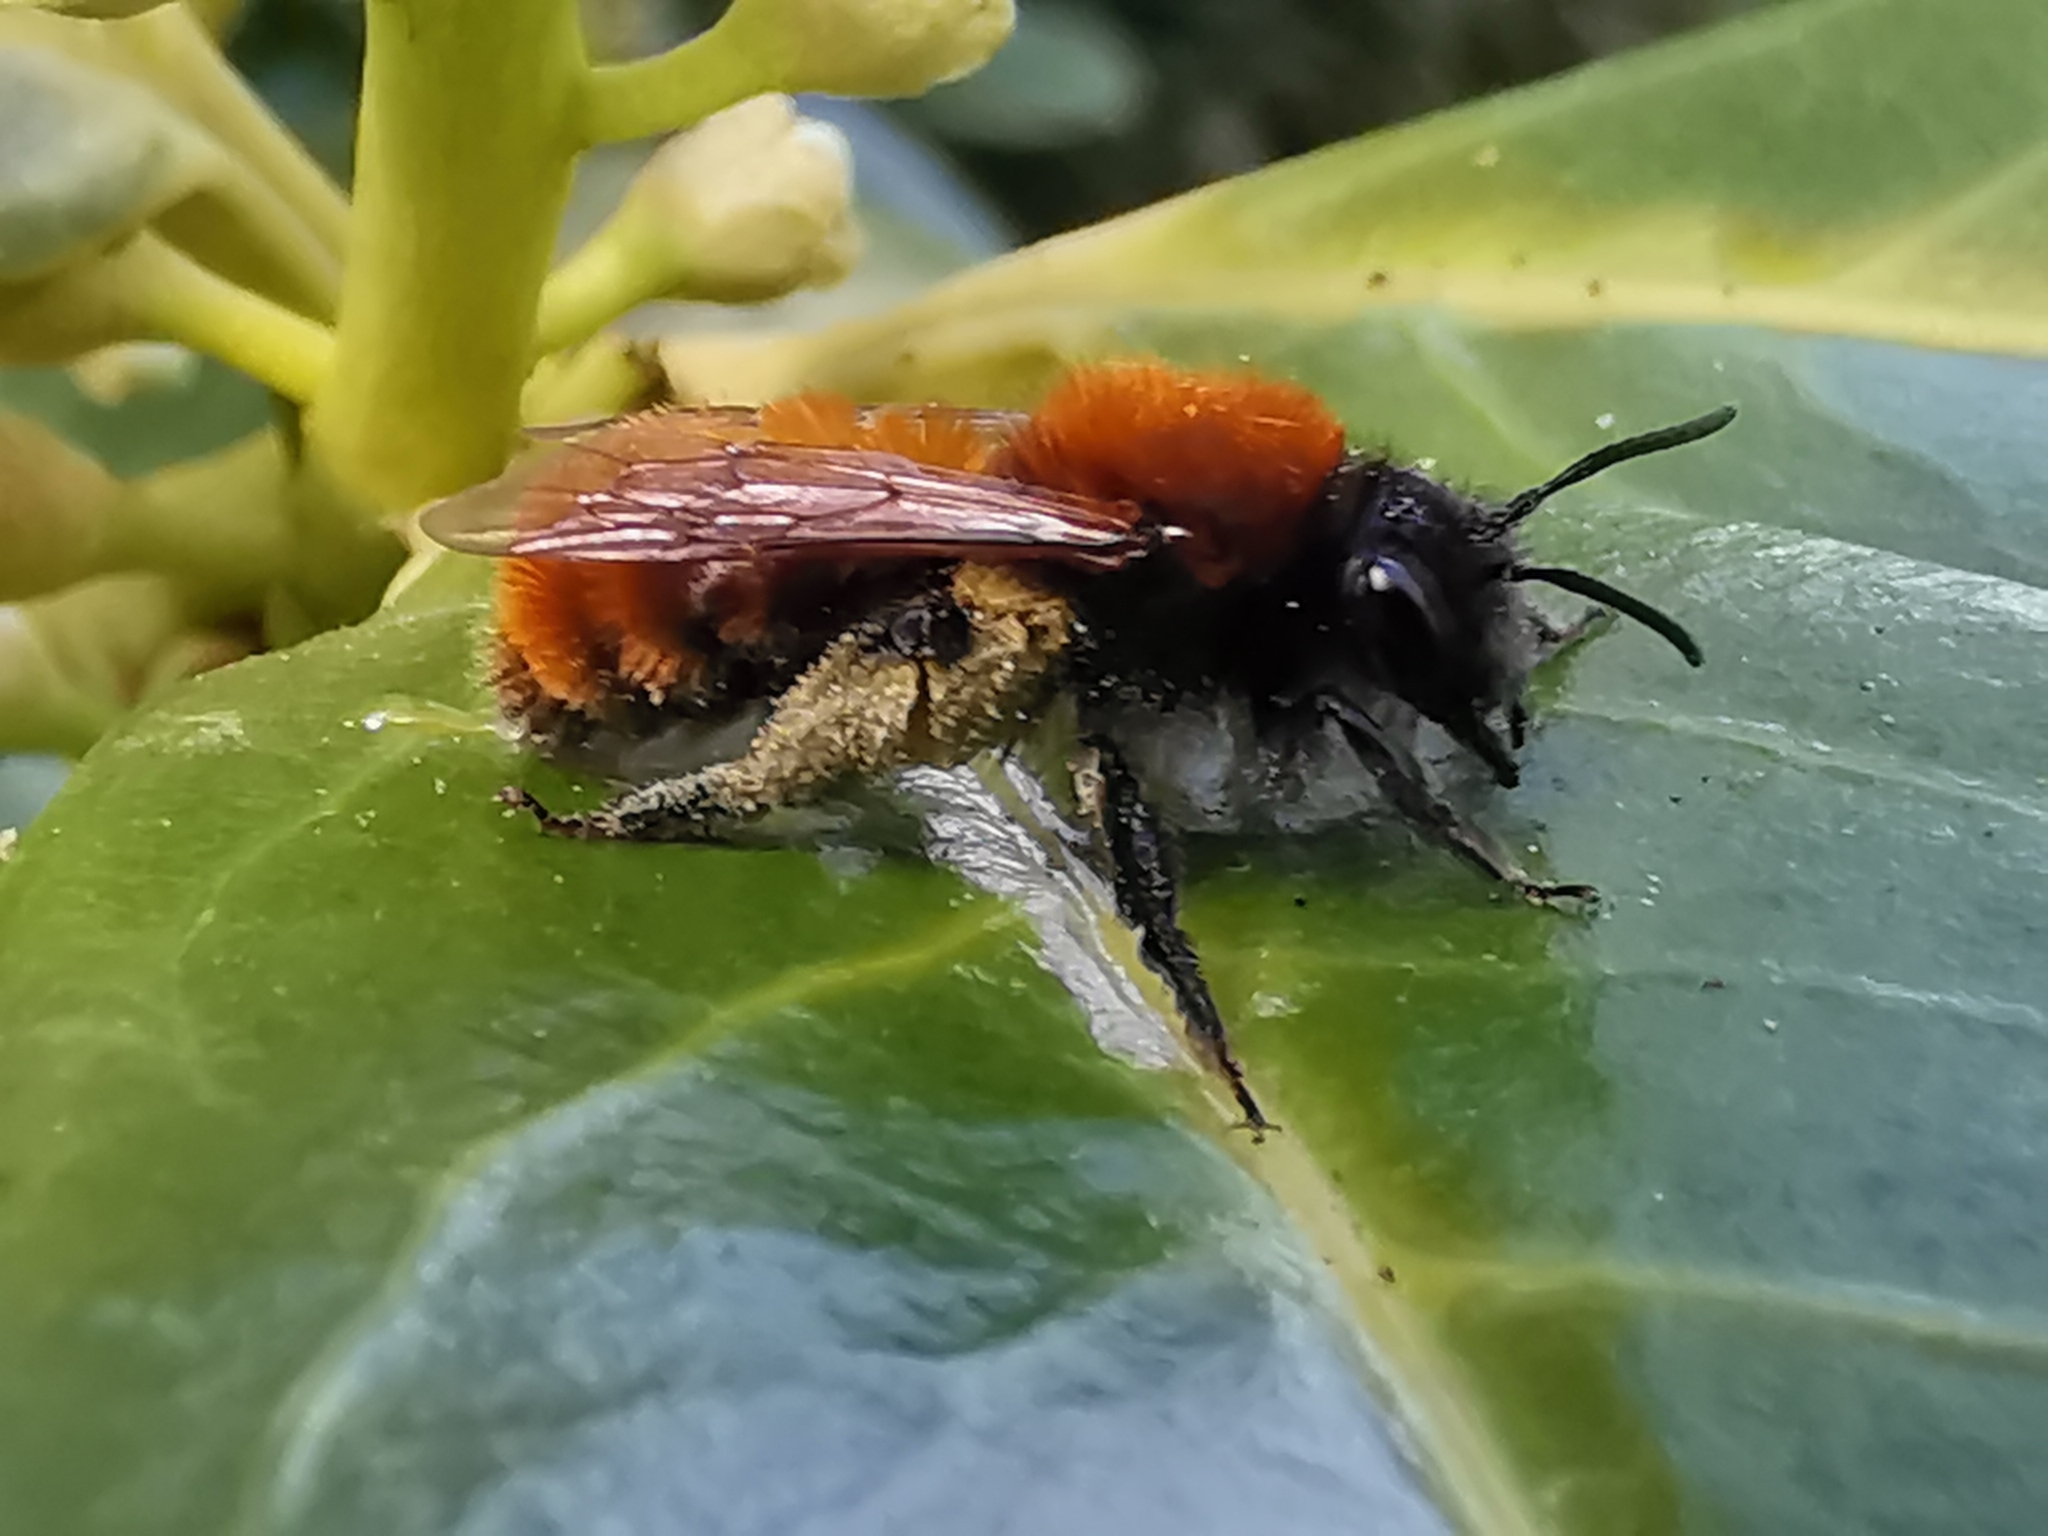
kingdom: Animalia
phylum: Arthropoda
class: Insecta
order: Hymenoptera
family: Andrenidae
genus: Andrena
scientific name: Andrena fulva
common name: Tawny mining bee
